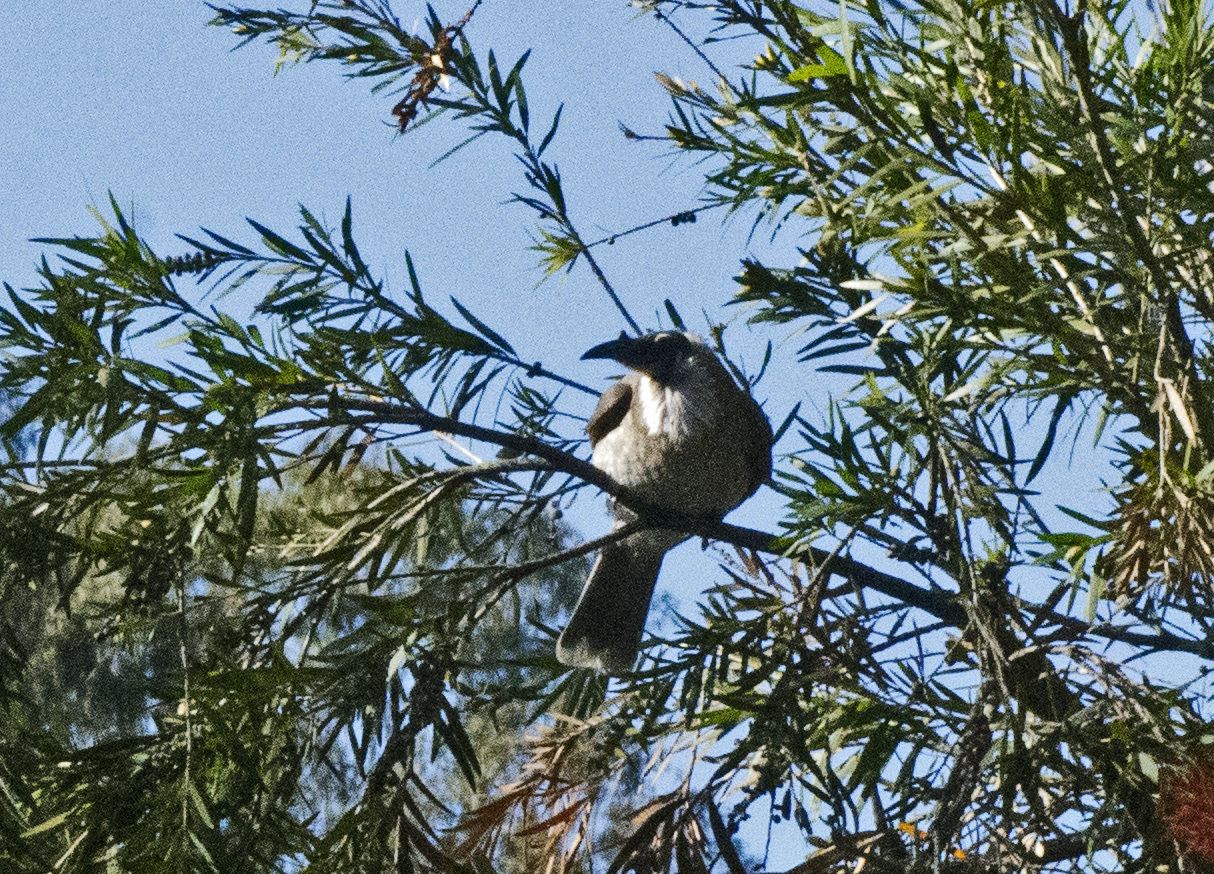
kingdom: Animalia
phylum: Chordata
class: Aves
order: Passeriformes
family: Meliphagidae
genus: Philemon
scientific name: Philemon corniculatus
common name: Noisy friarbird
